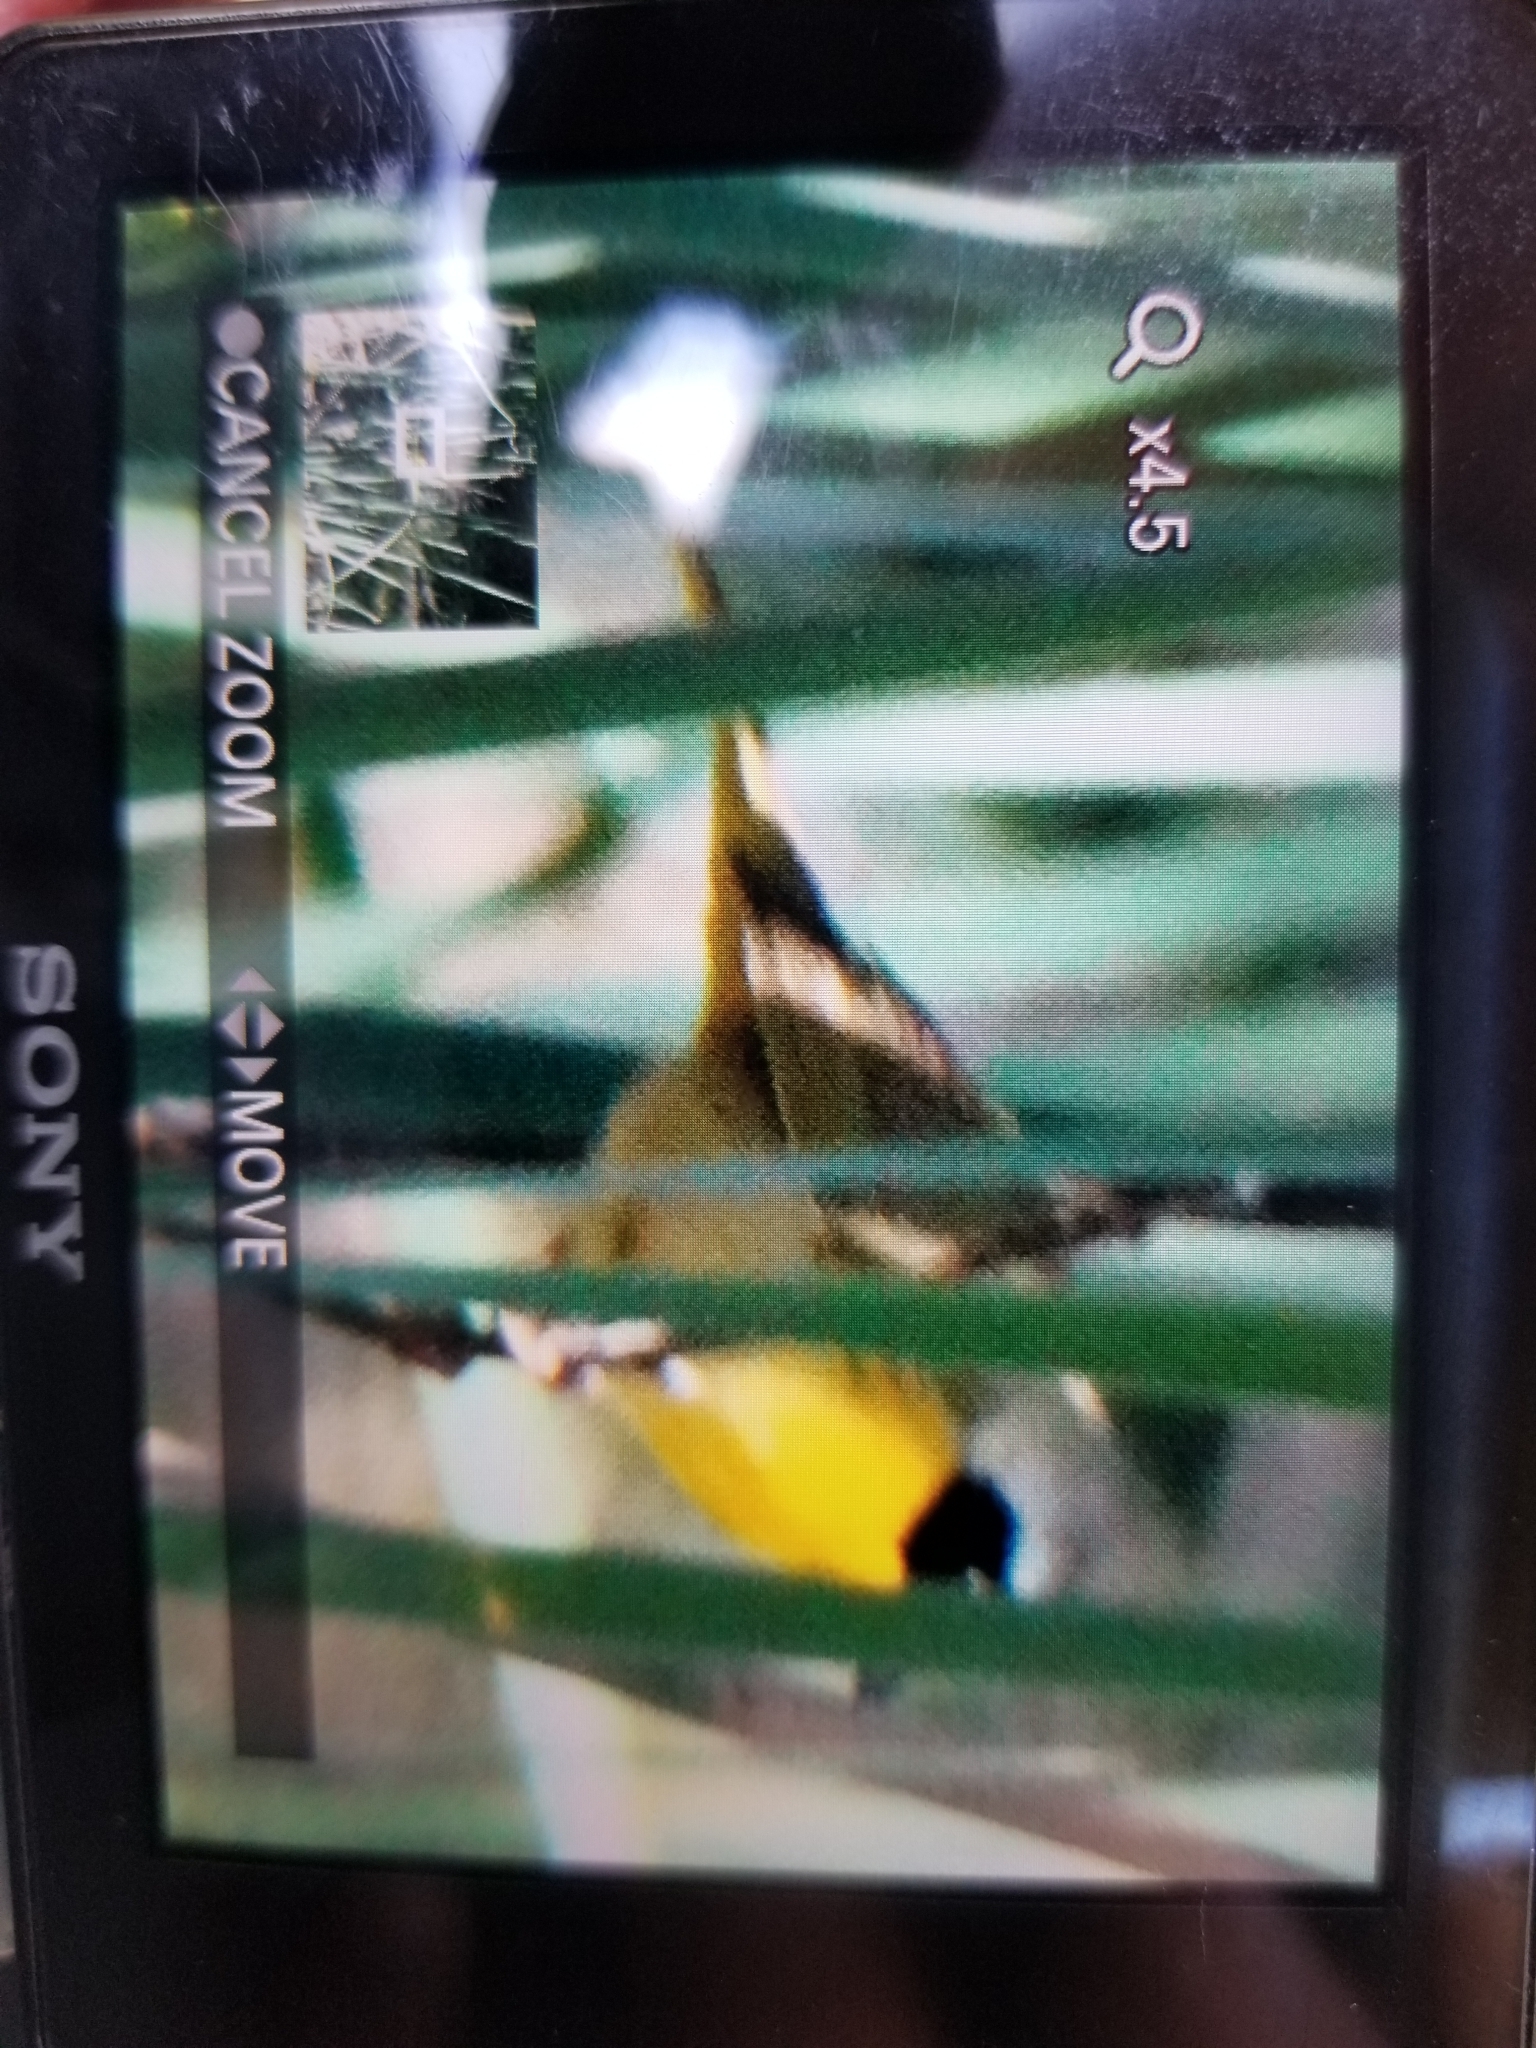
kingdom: Animalia
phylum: Chordata
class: Aves
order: Passeriformes
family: Parulidae
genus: Geothlypis
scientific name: Geothlypis trichas
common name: Common yellowthroat
